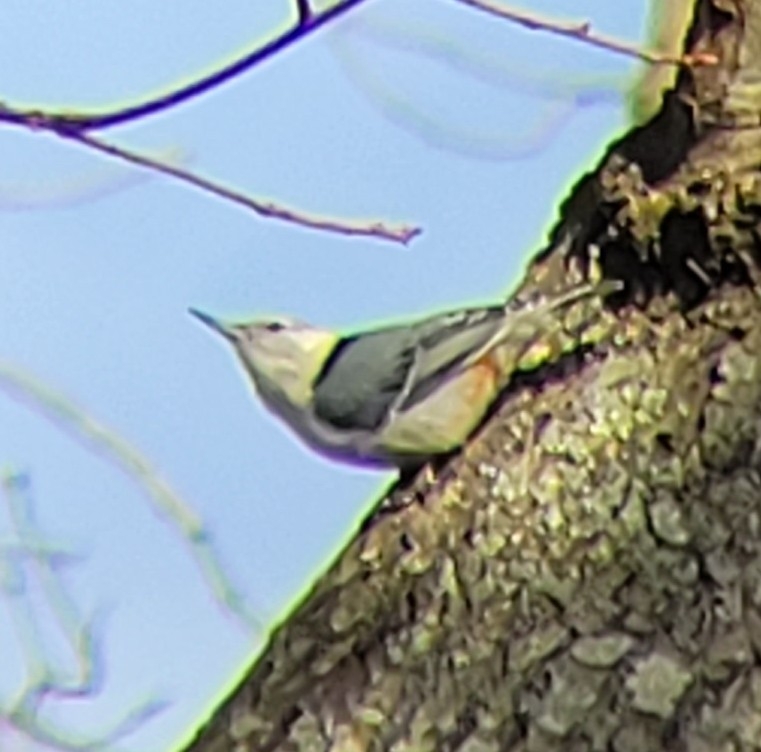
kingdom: Animalia
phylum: Chordata
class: Aves
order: Passeriformes
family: Sittidae
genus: Sitta
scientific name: Sitta carolinensis
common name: White-breasted nuthatch
